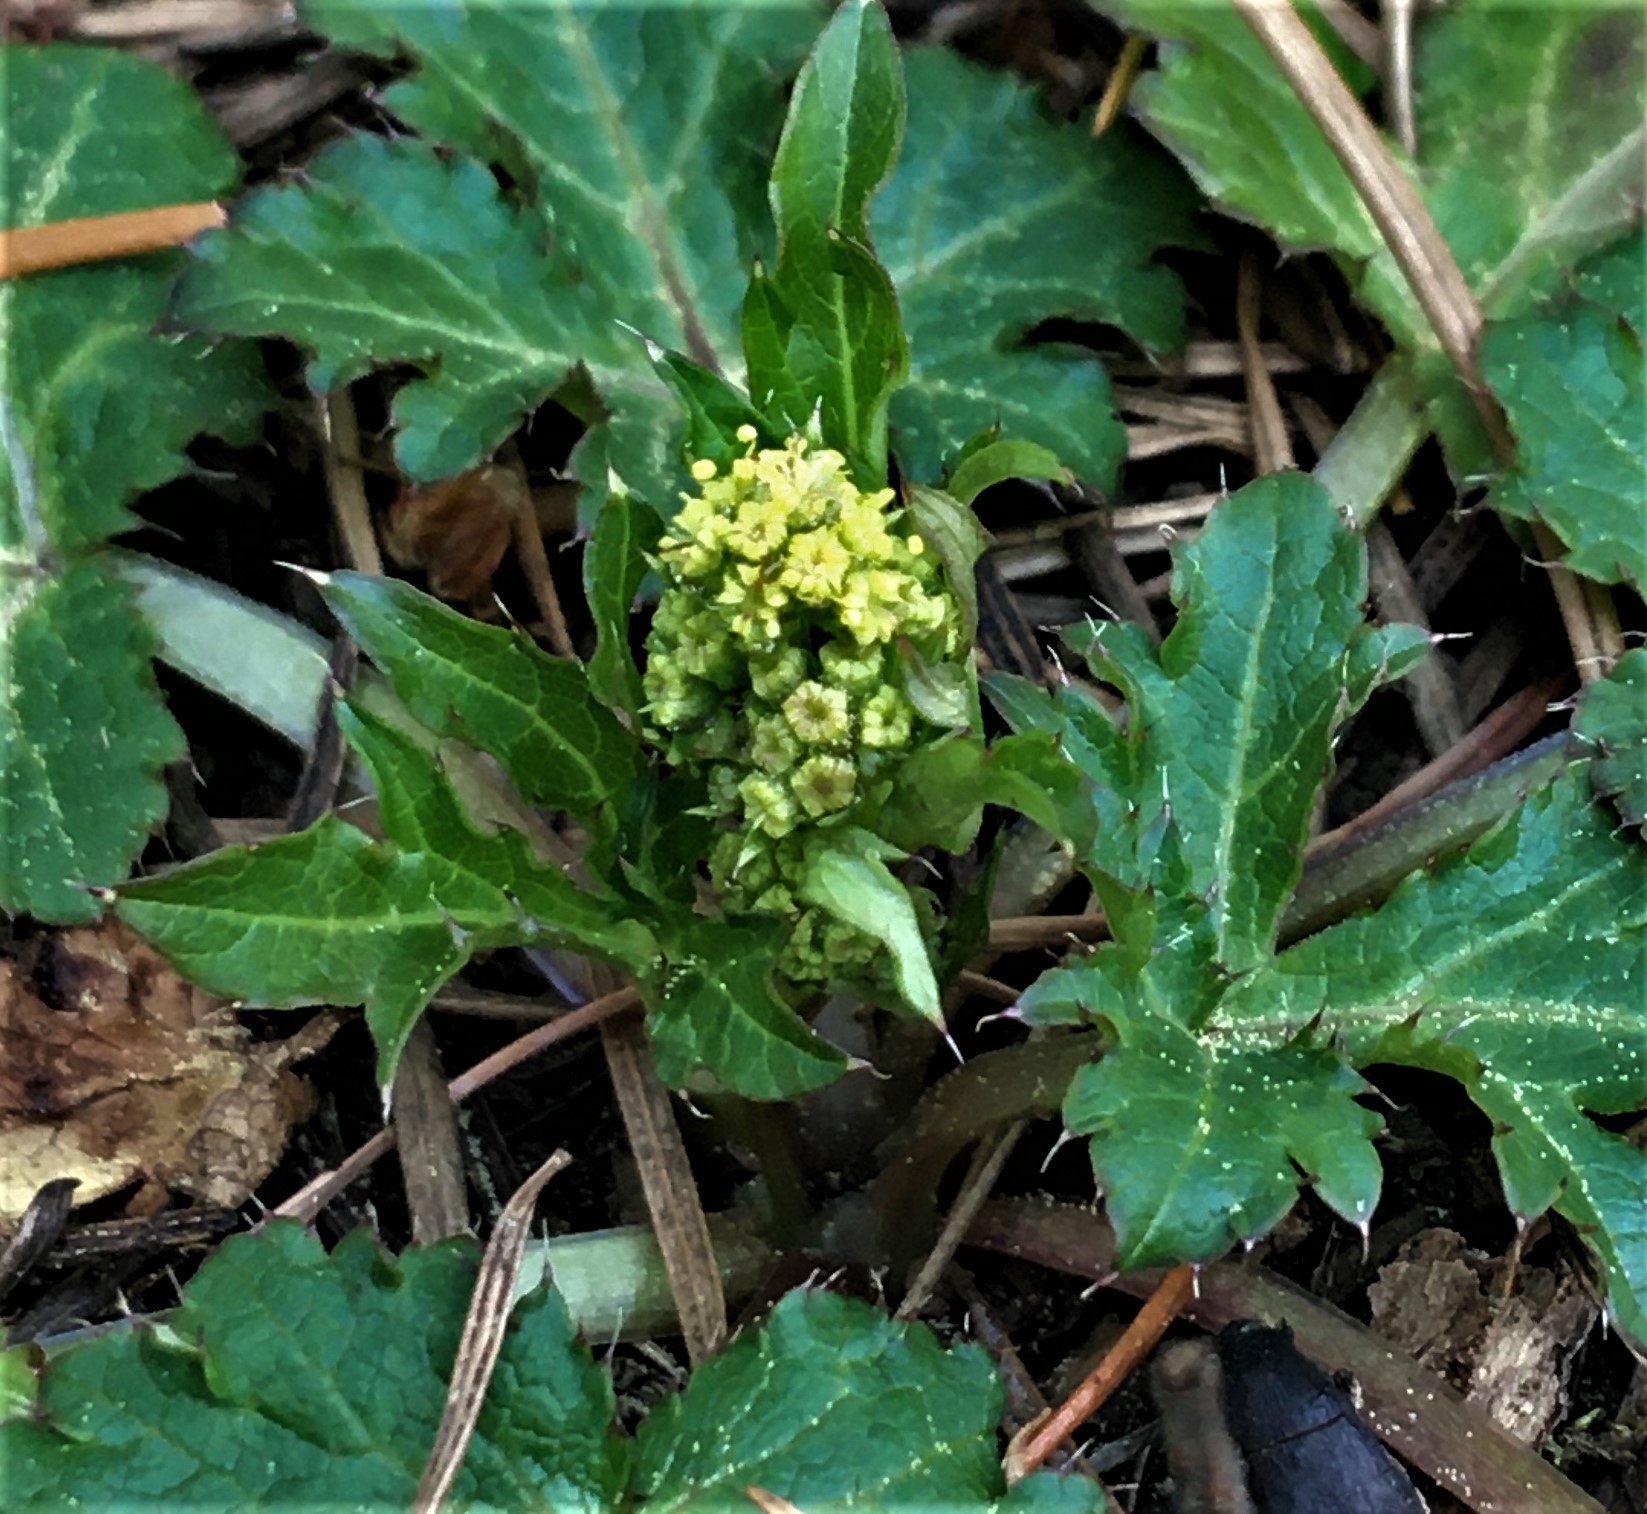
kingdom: Plantae
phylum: Tracheophyta
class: Magnoliopsida
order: Apiales
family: Apiaceae
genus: Sanicula
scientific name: Sanicula crassicaulis
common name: Western snakeroot
